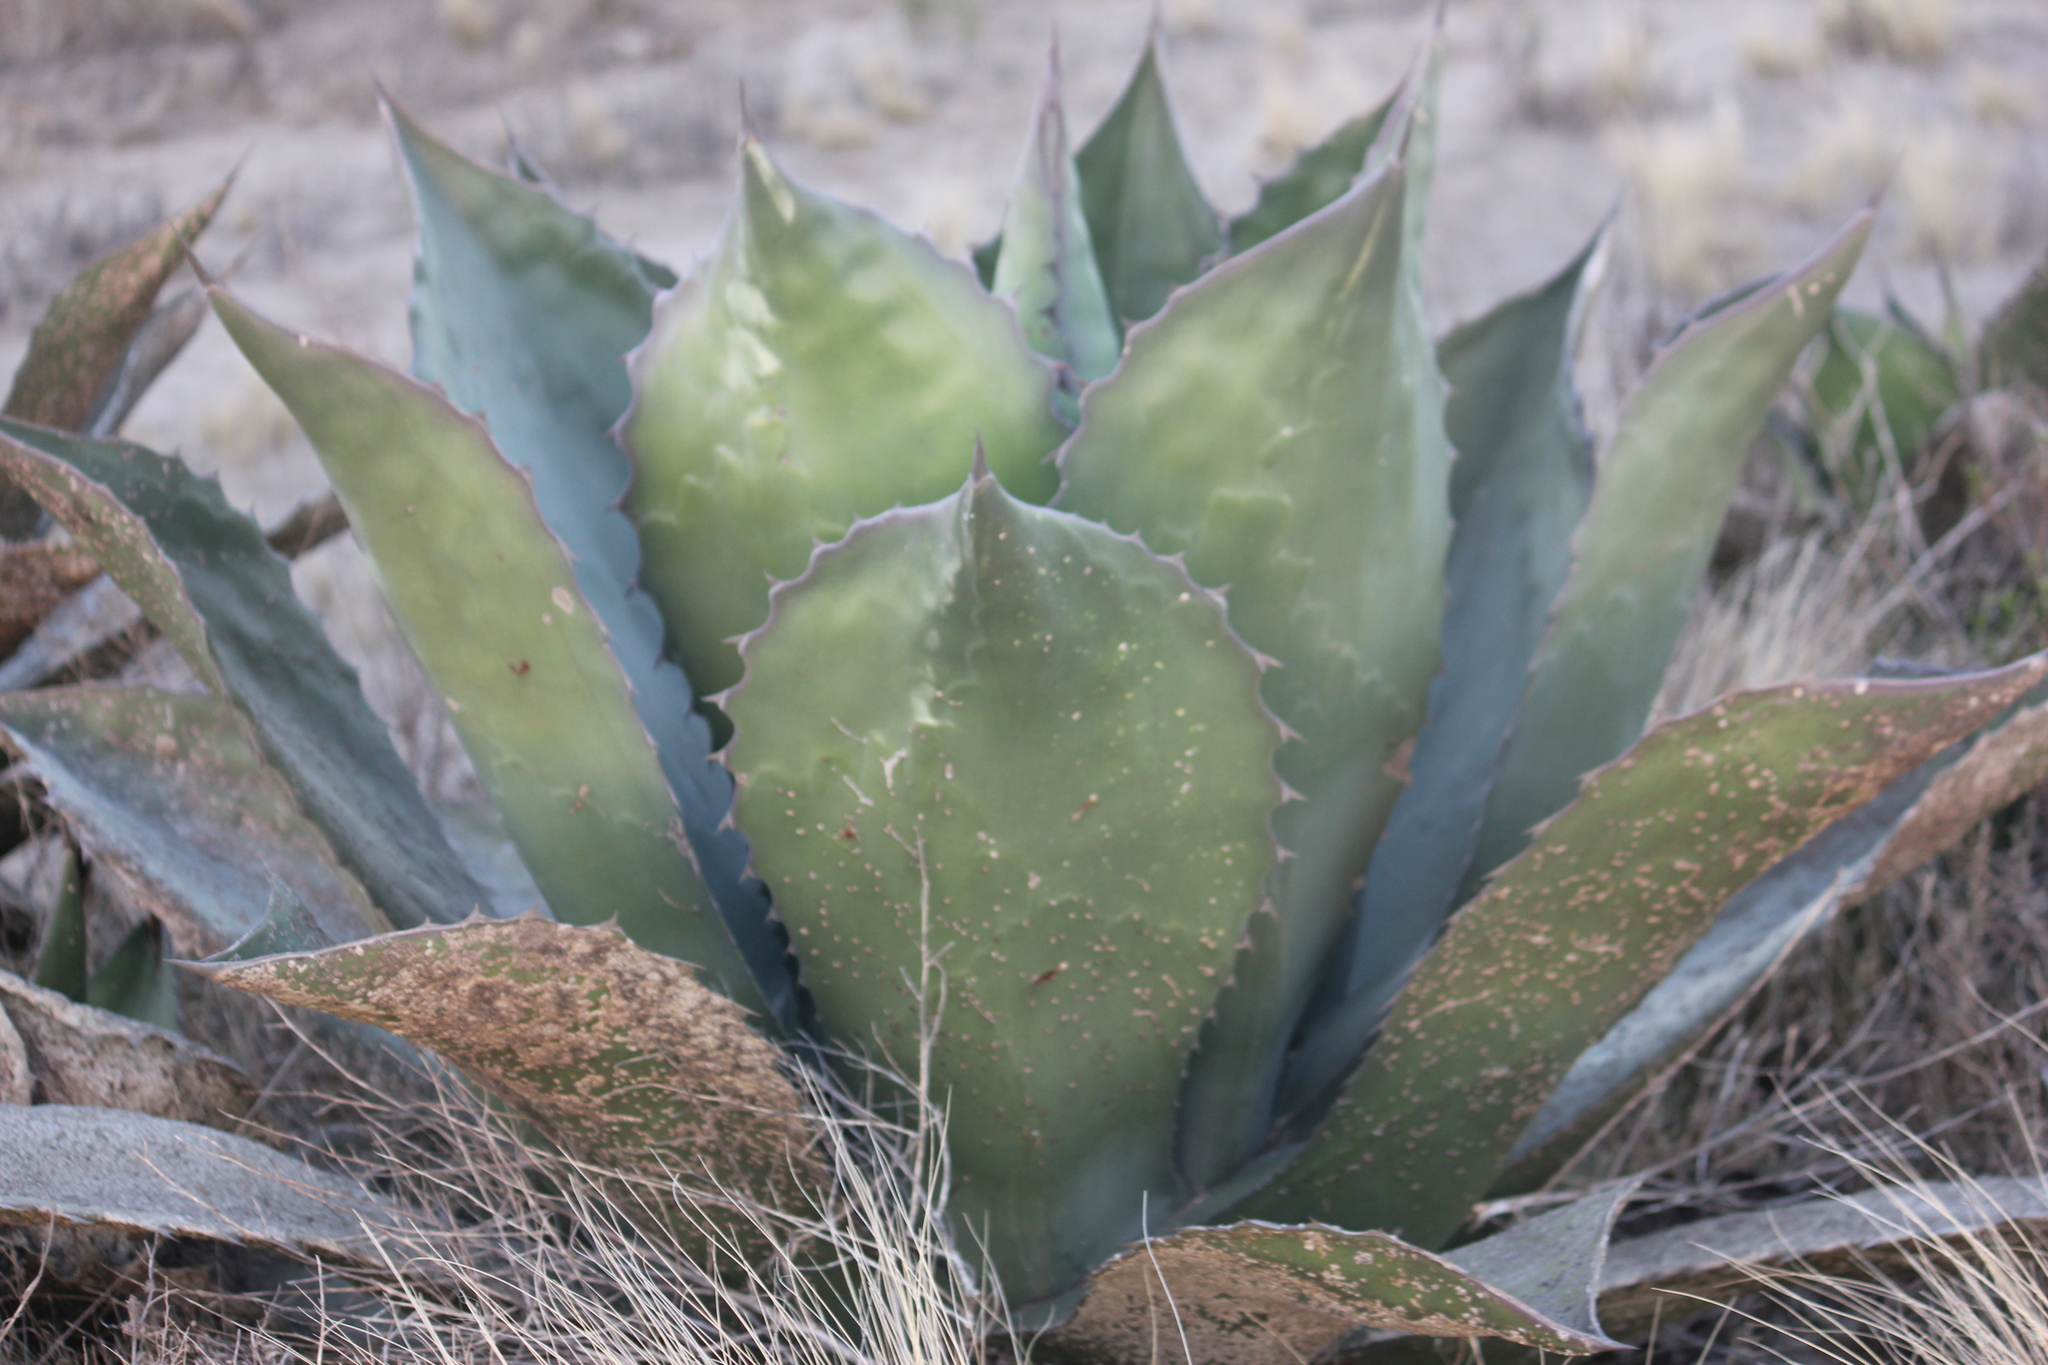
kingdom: Plantae
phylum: Tracheophyta
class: Liliopsida
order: Asparagales
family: Asparagaceae
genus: Agave
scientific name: Agave salmiana
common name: Pulque agave
